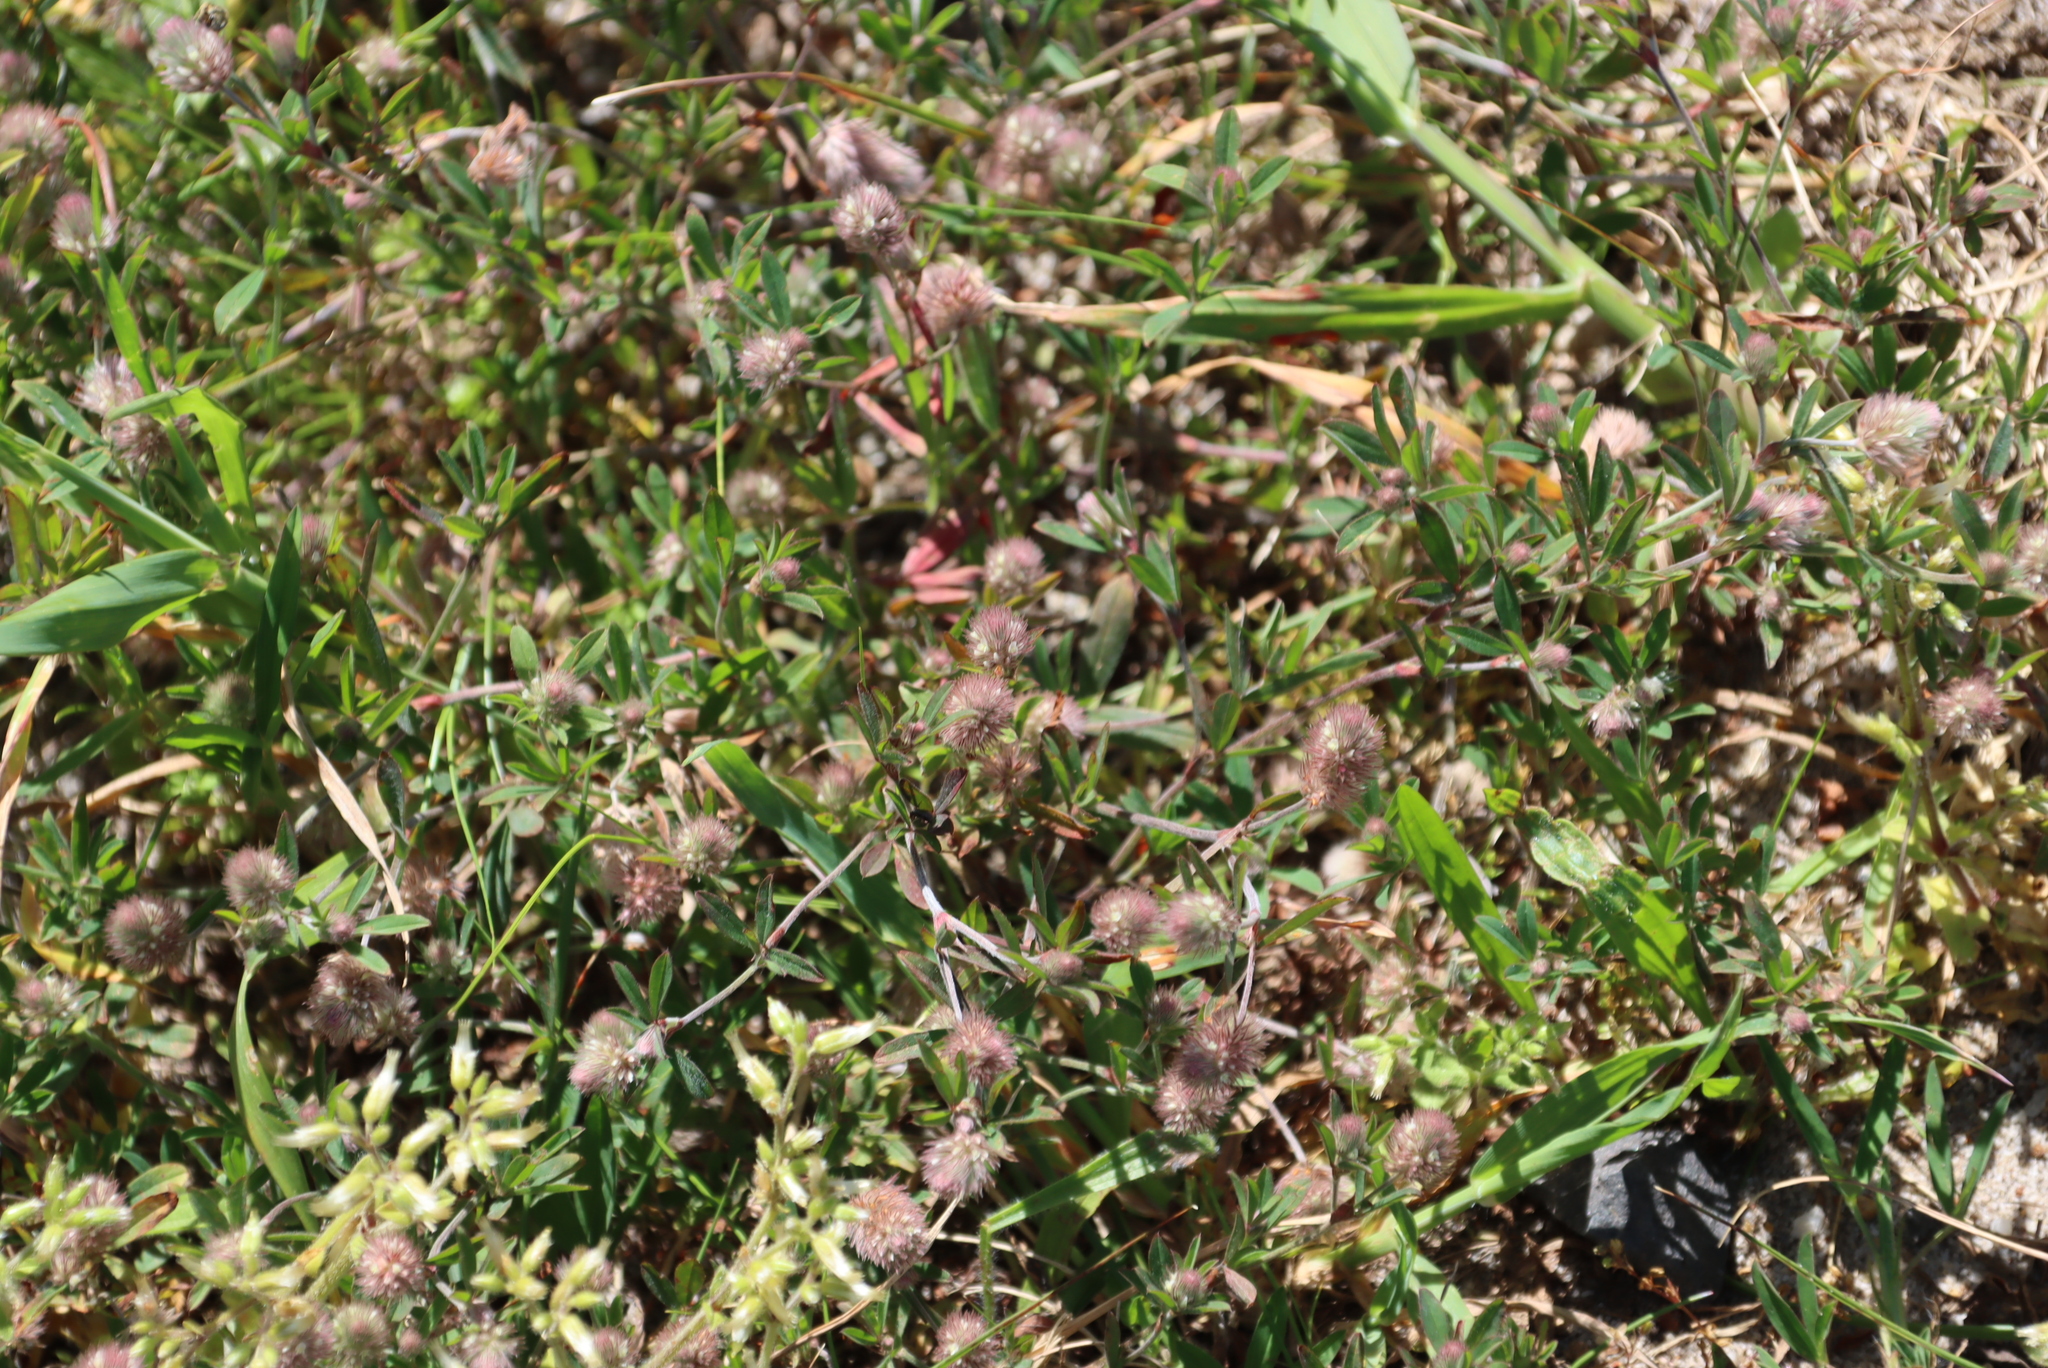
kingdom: Plantae
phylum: Tracheophyta
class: Magnoliopsida
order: Fabales
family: Fabaceae
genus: Trifolium
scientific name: Trifolium arvense
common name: Hare's-foot clover
